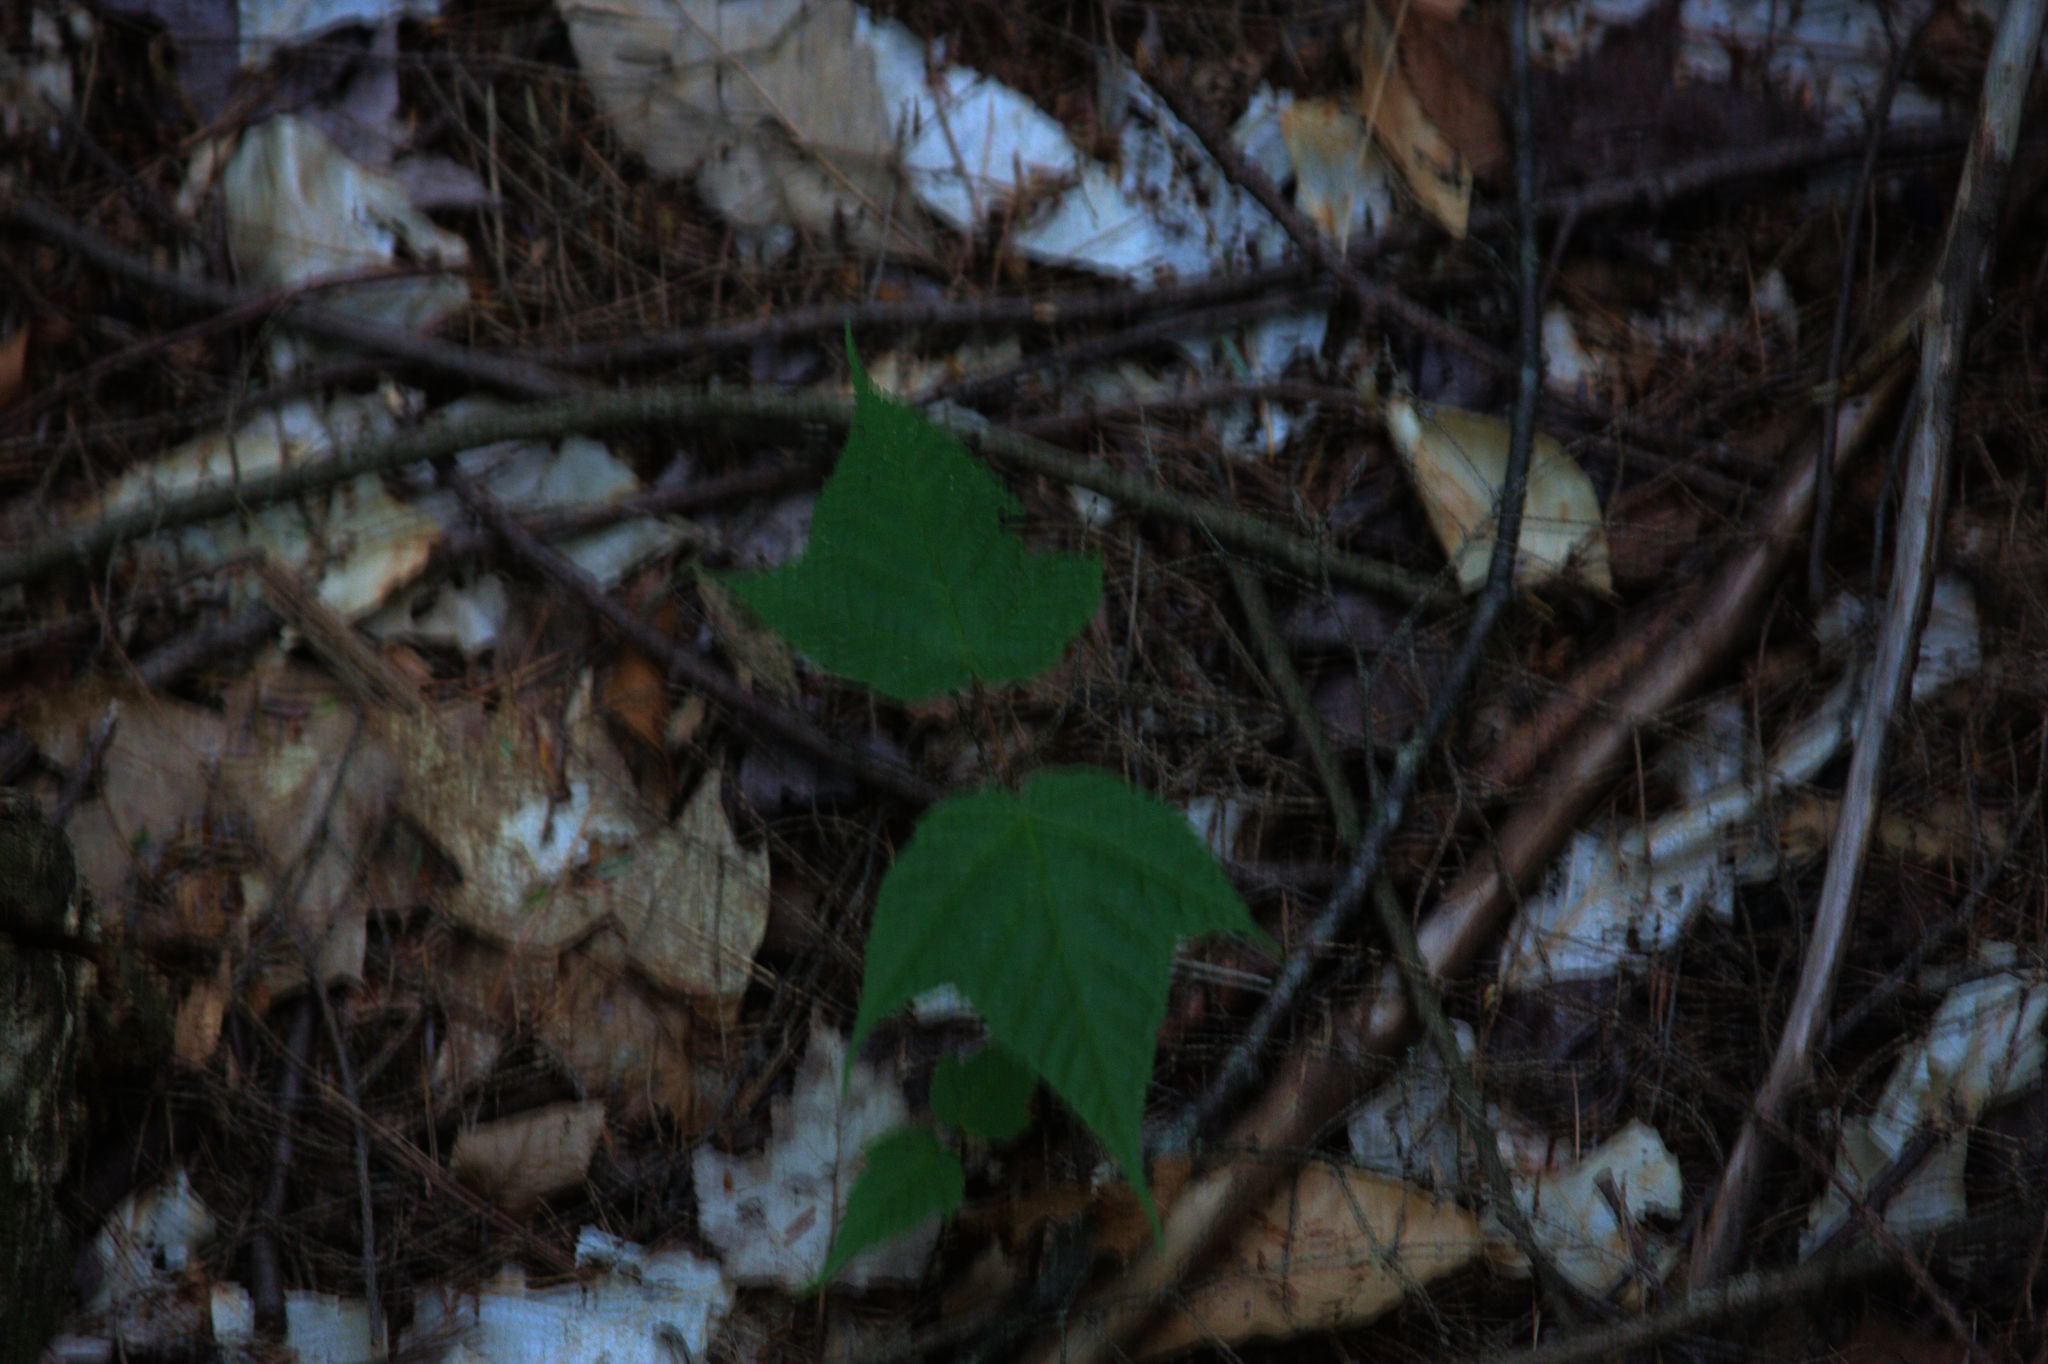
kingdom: Plantae
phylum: Tracheophyta
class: Magnoliopsida
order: Sapindales
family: Sapindaceae
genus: Acer
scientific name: Acer pensylvanicum
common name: Moosewood
